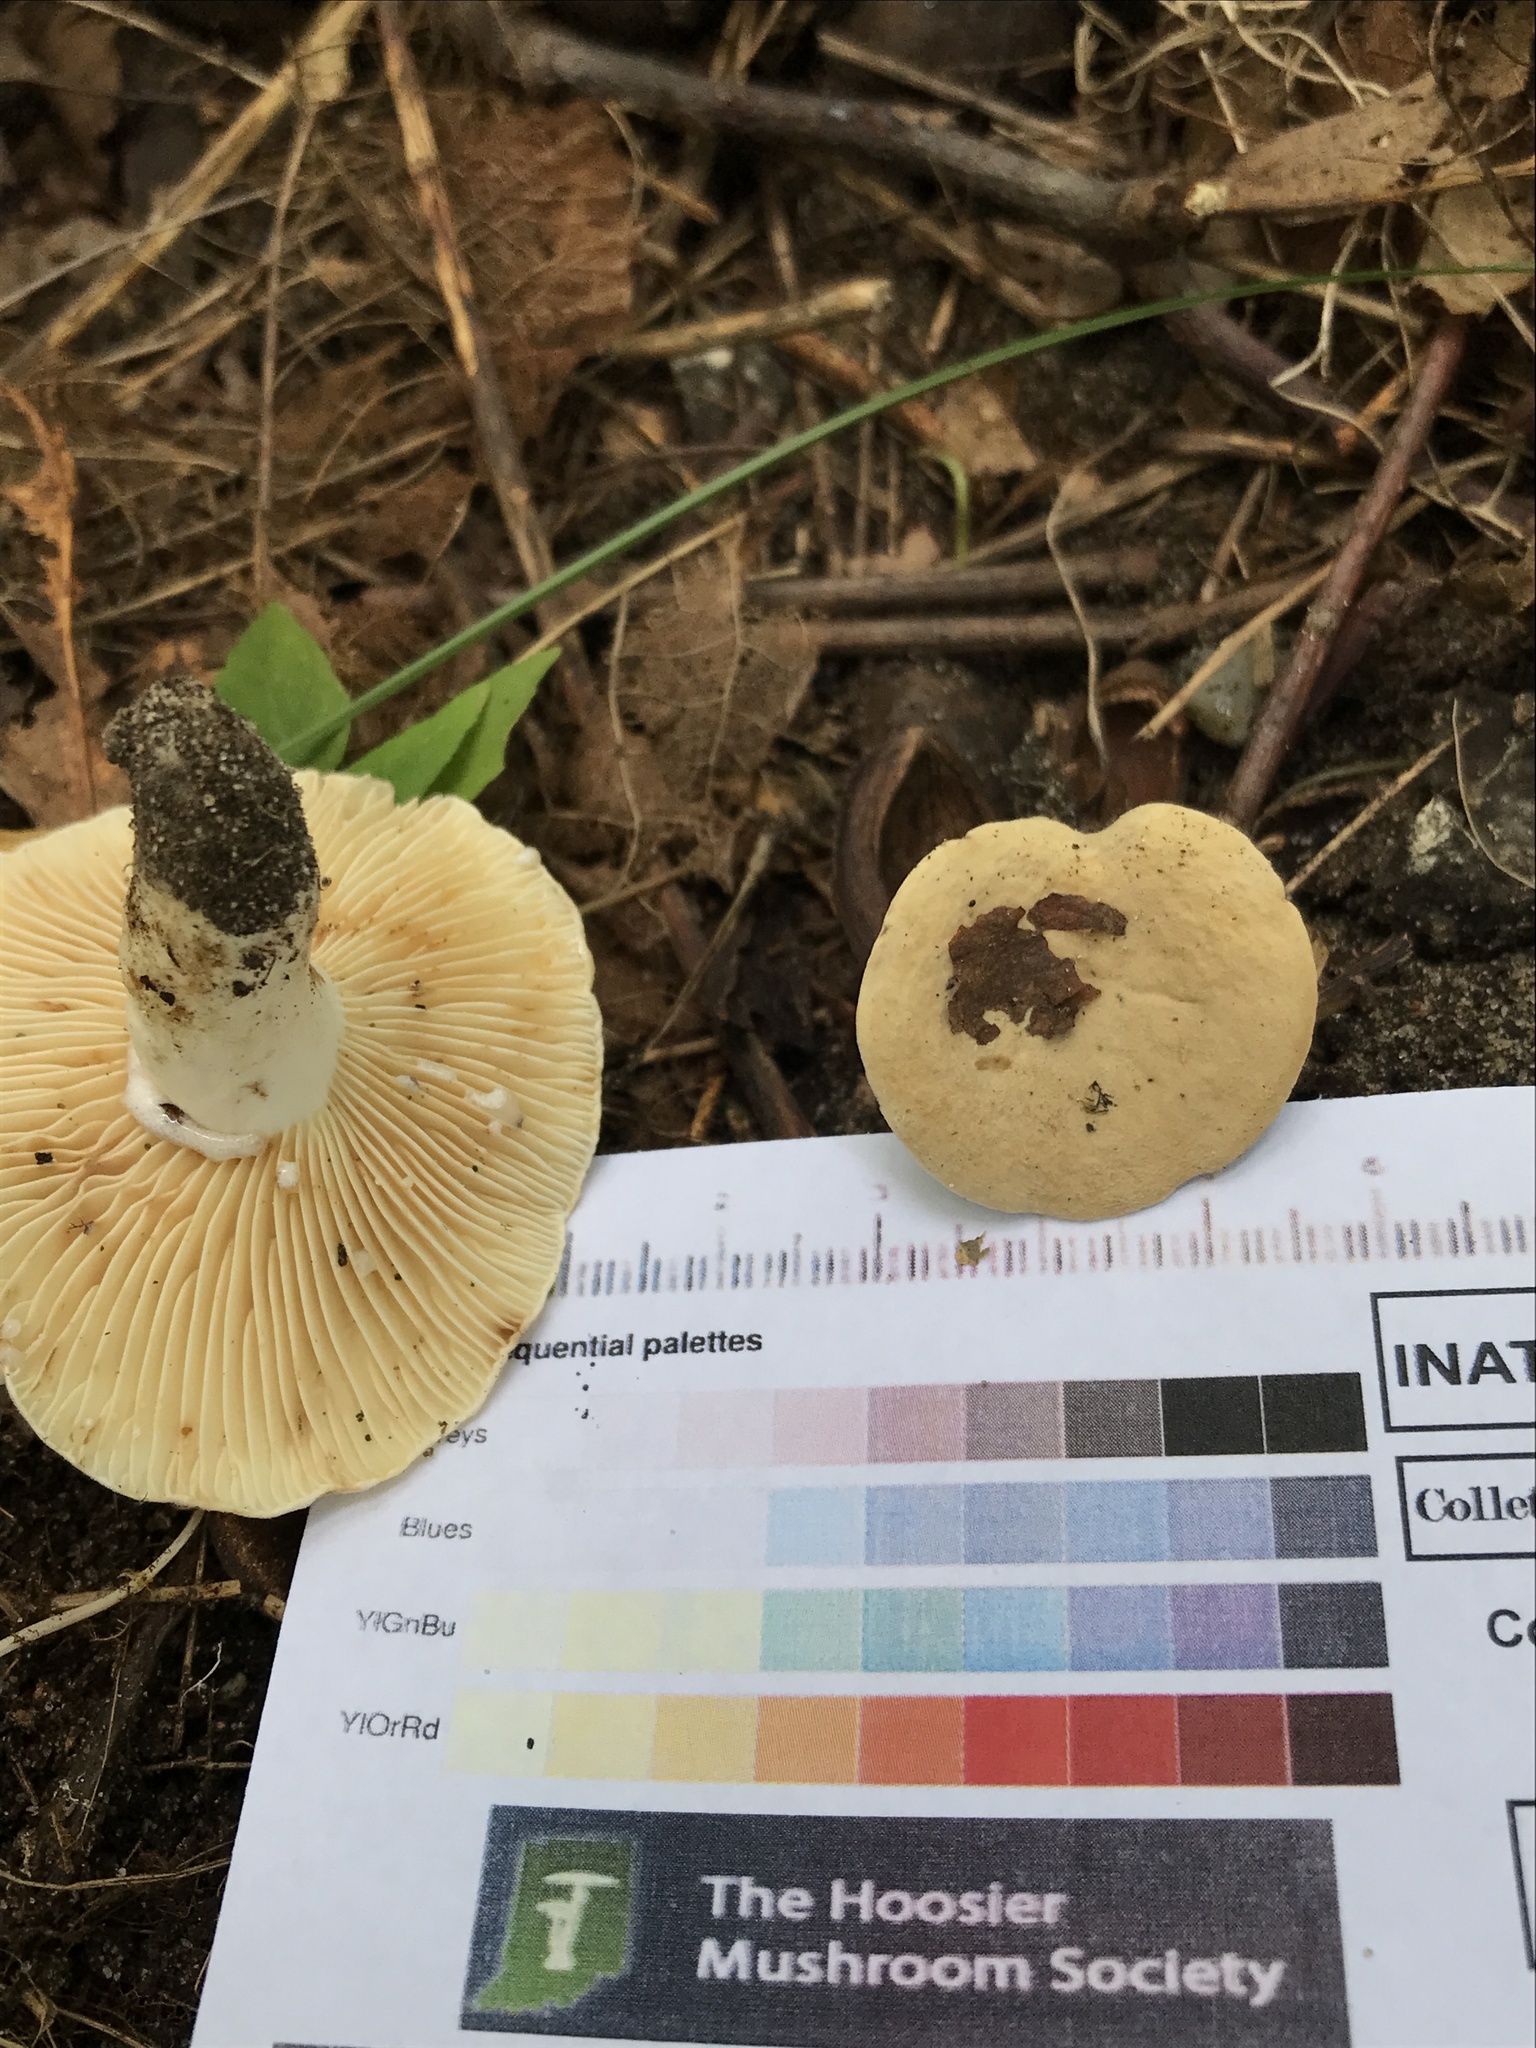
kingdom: Fungi
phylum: Basidiomycota
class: Agaricomycetes
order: Russulales
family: Russulaceae
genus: Lactifluus
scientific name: Lactifluus luteolus
